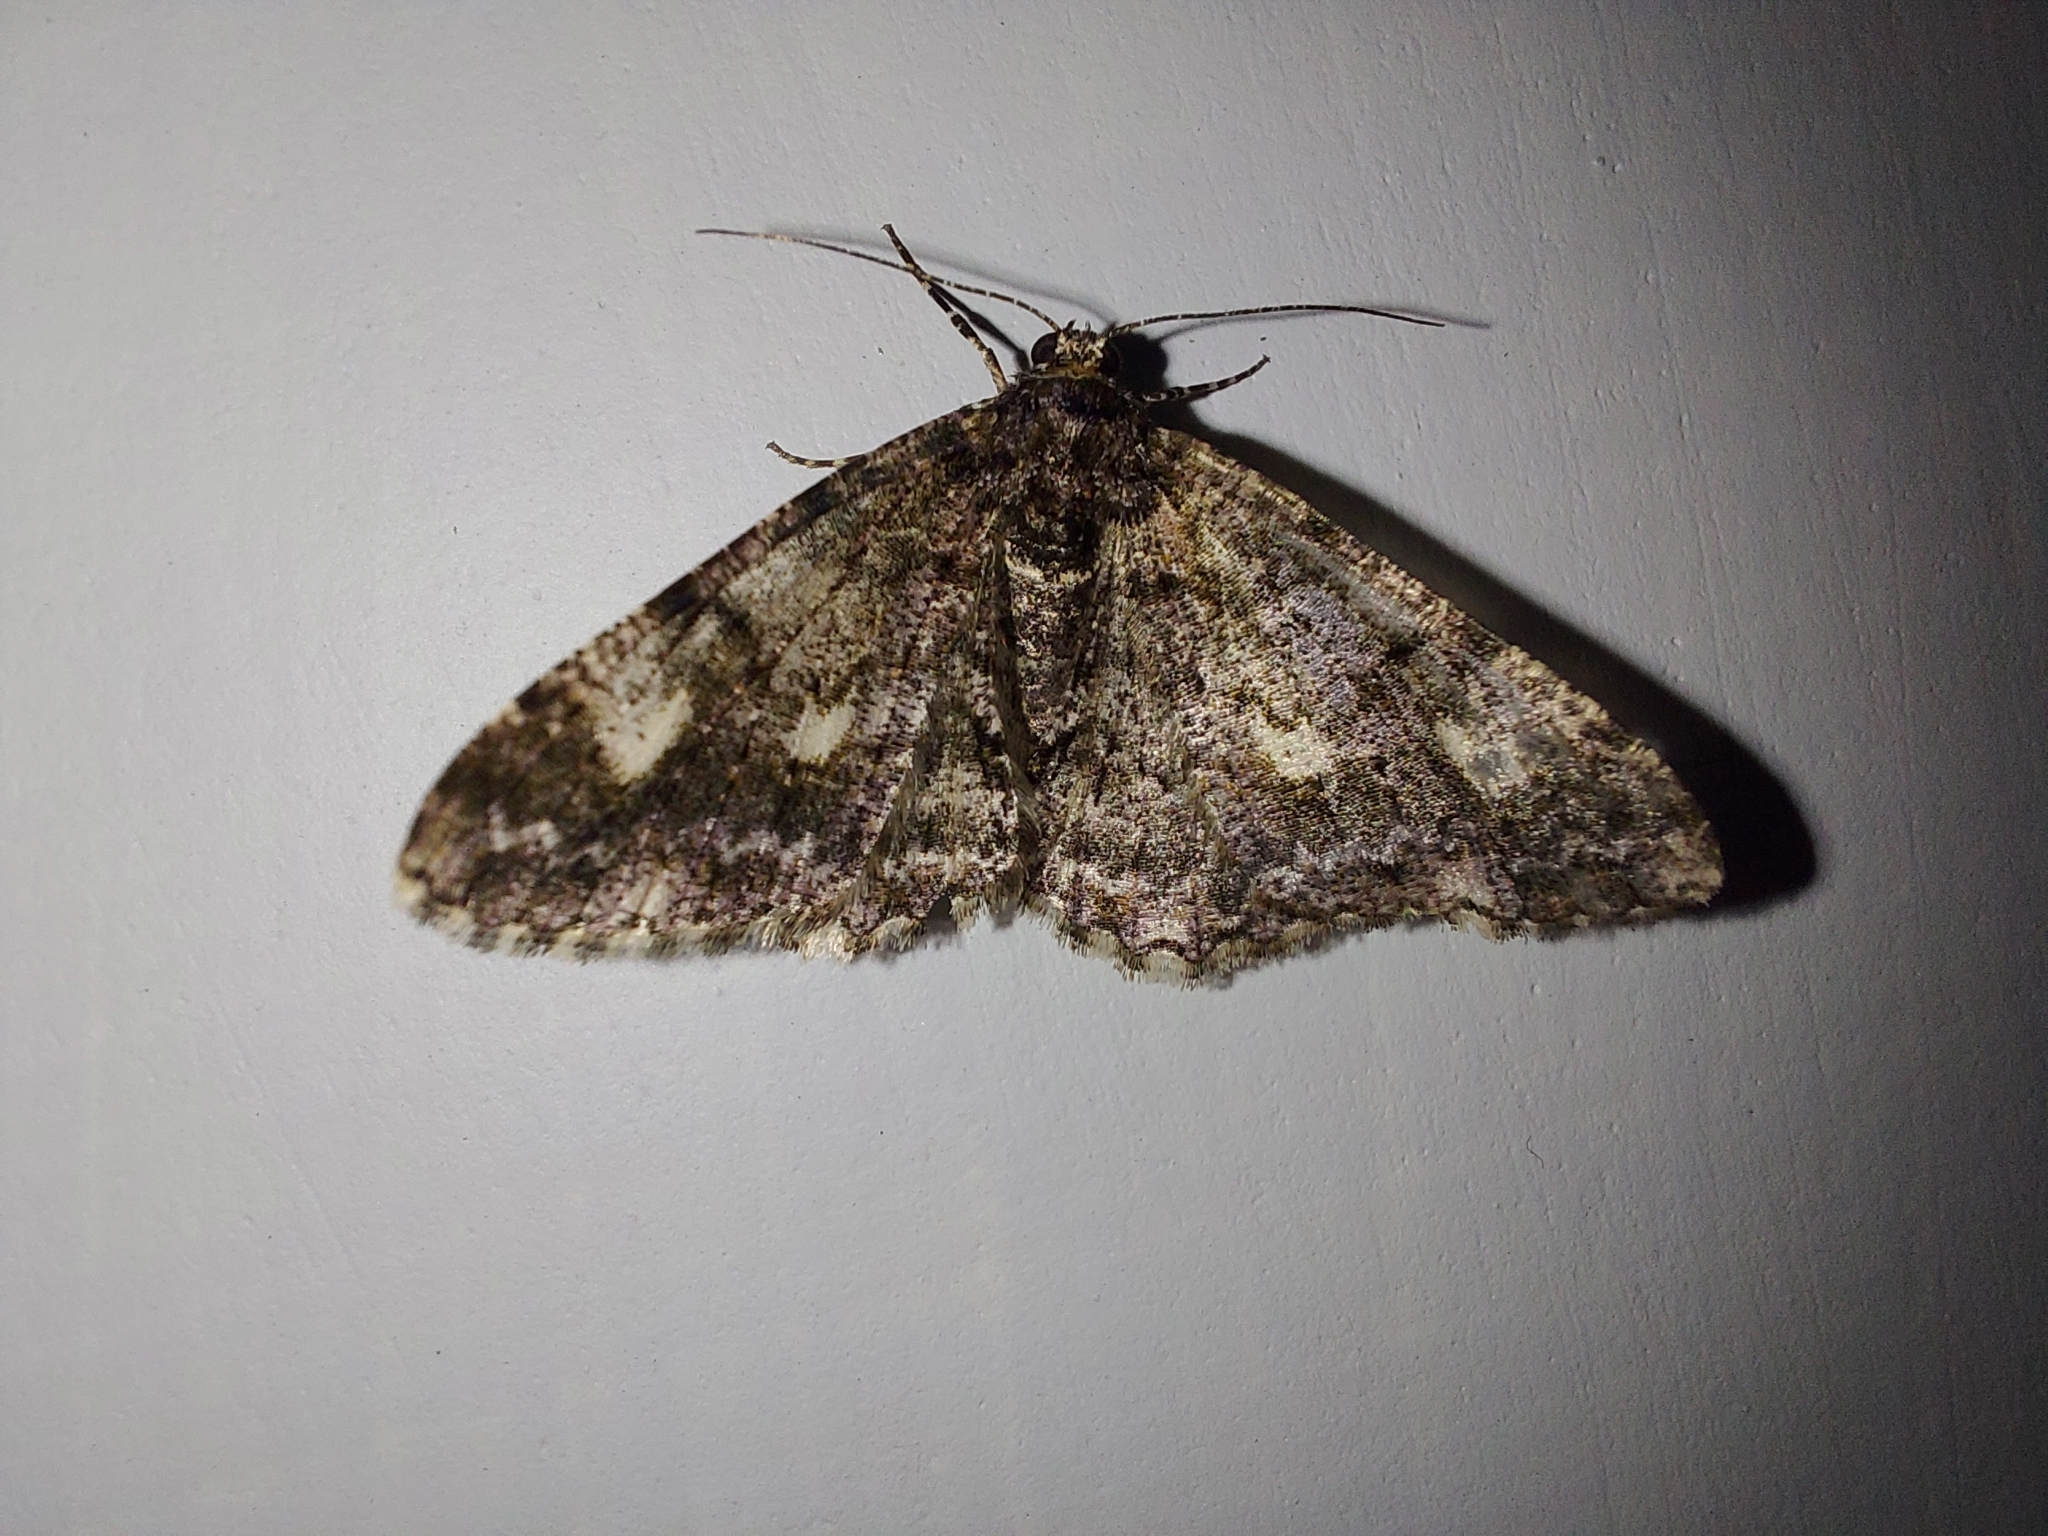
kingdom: Animalia
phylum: Arthropoda
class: Insecta
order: Lepidoptera
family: Geometridae
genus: Alcis
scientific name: Alcis variegata
